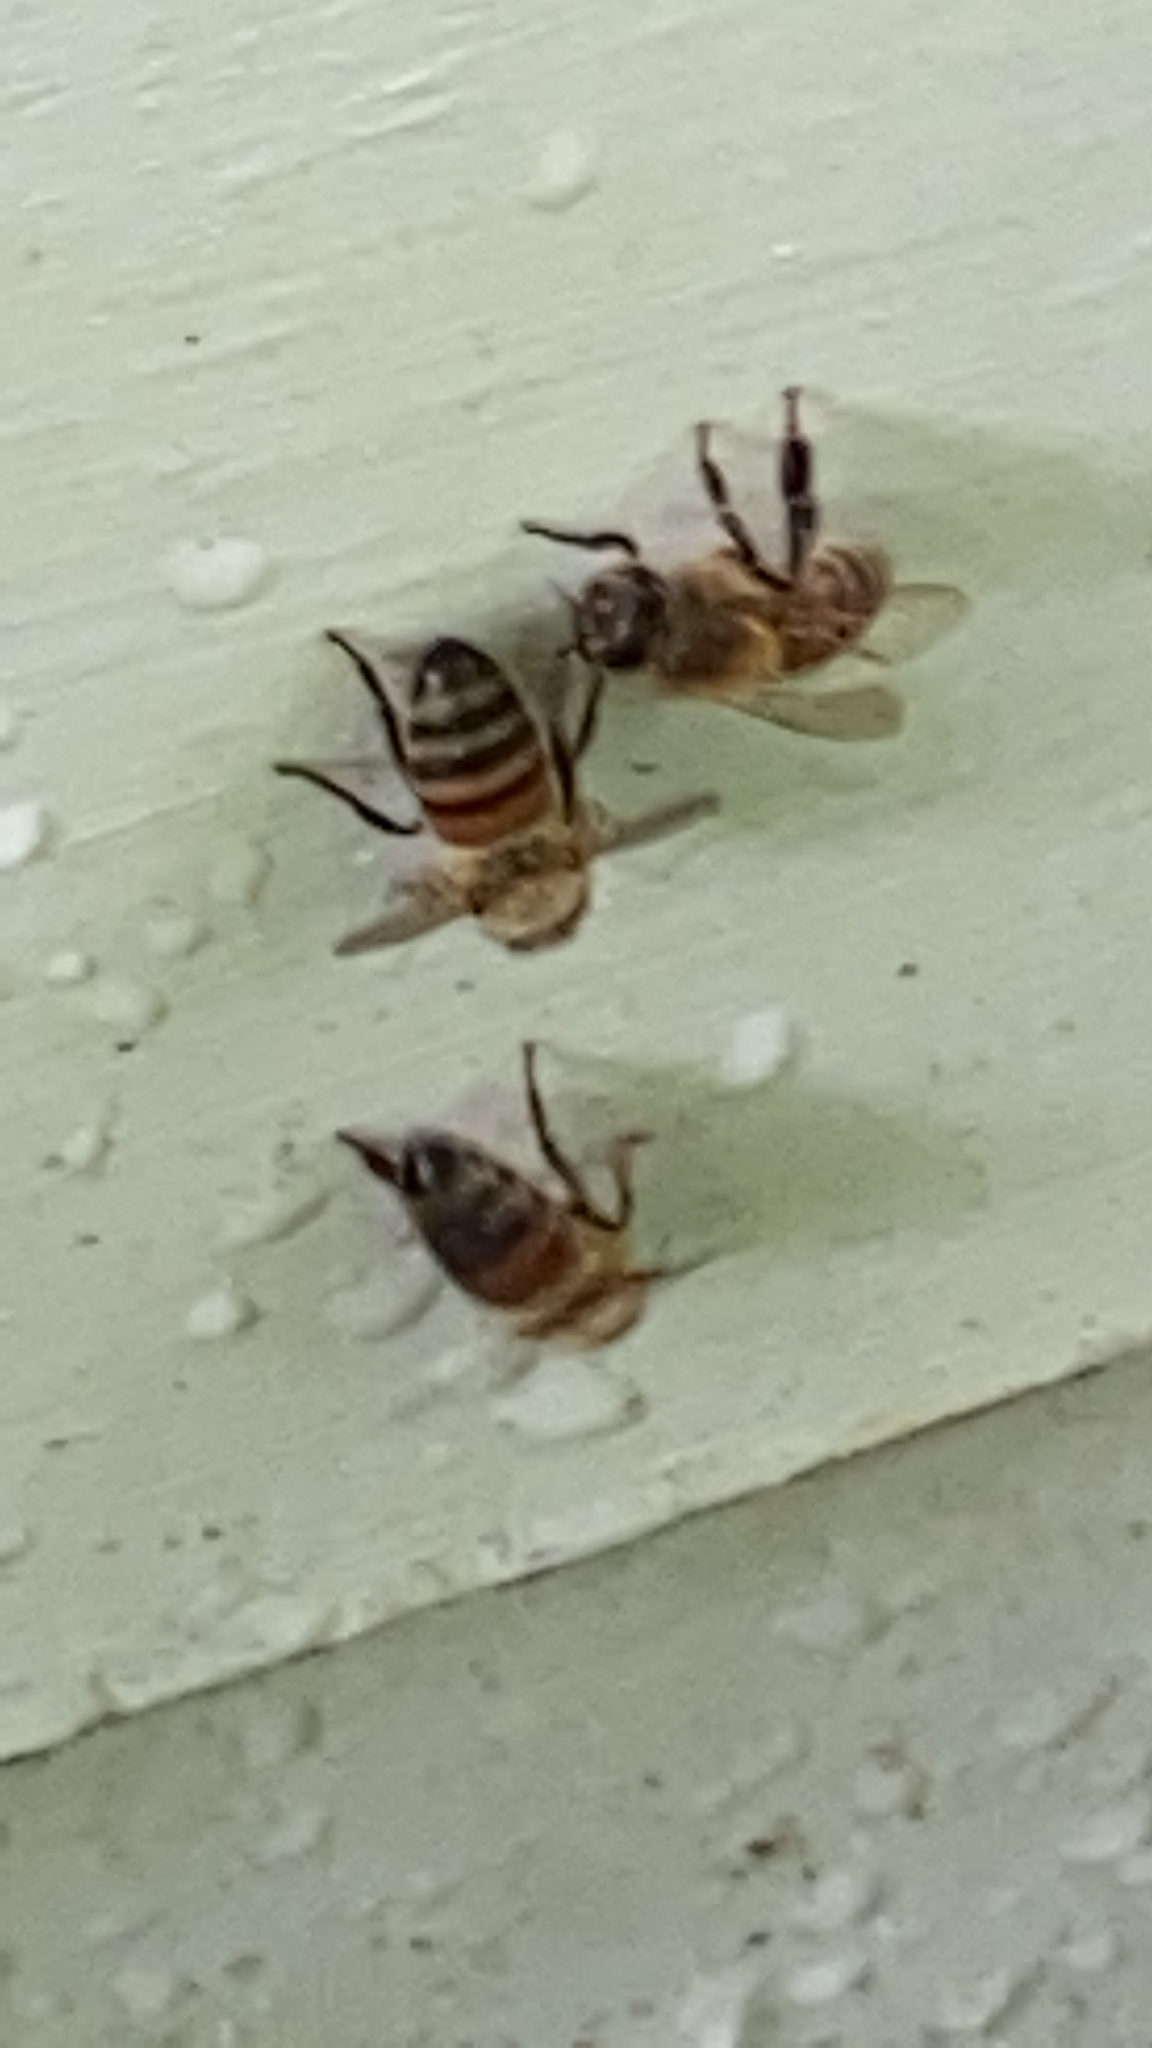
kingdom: Animalia
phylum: Arthropoda
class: Insecta
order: Hymenoptera
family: Apidae
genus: Apis
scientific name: Apis mellifera
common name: Honey bee
